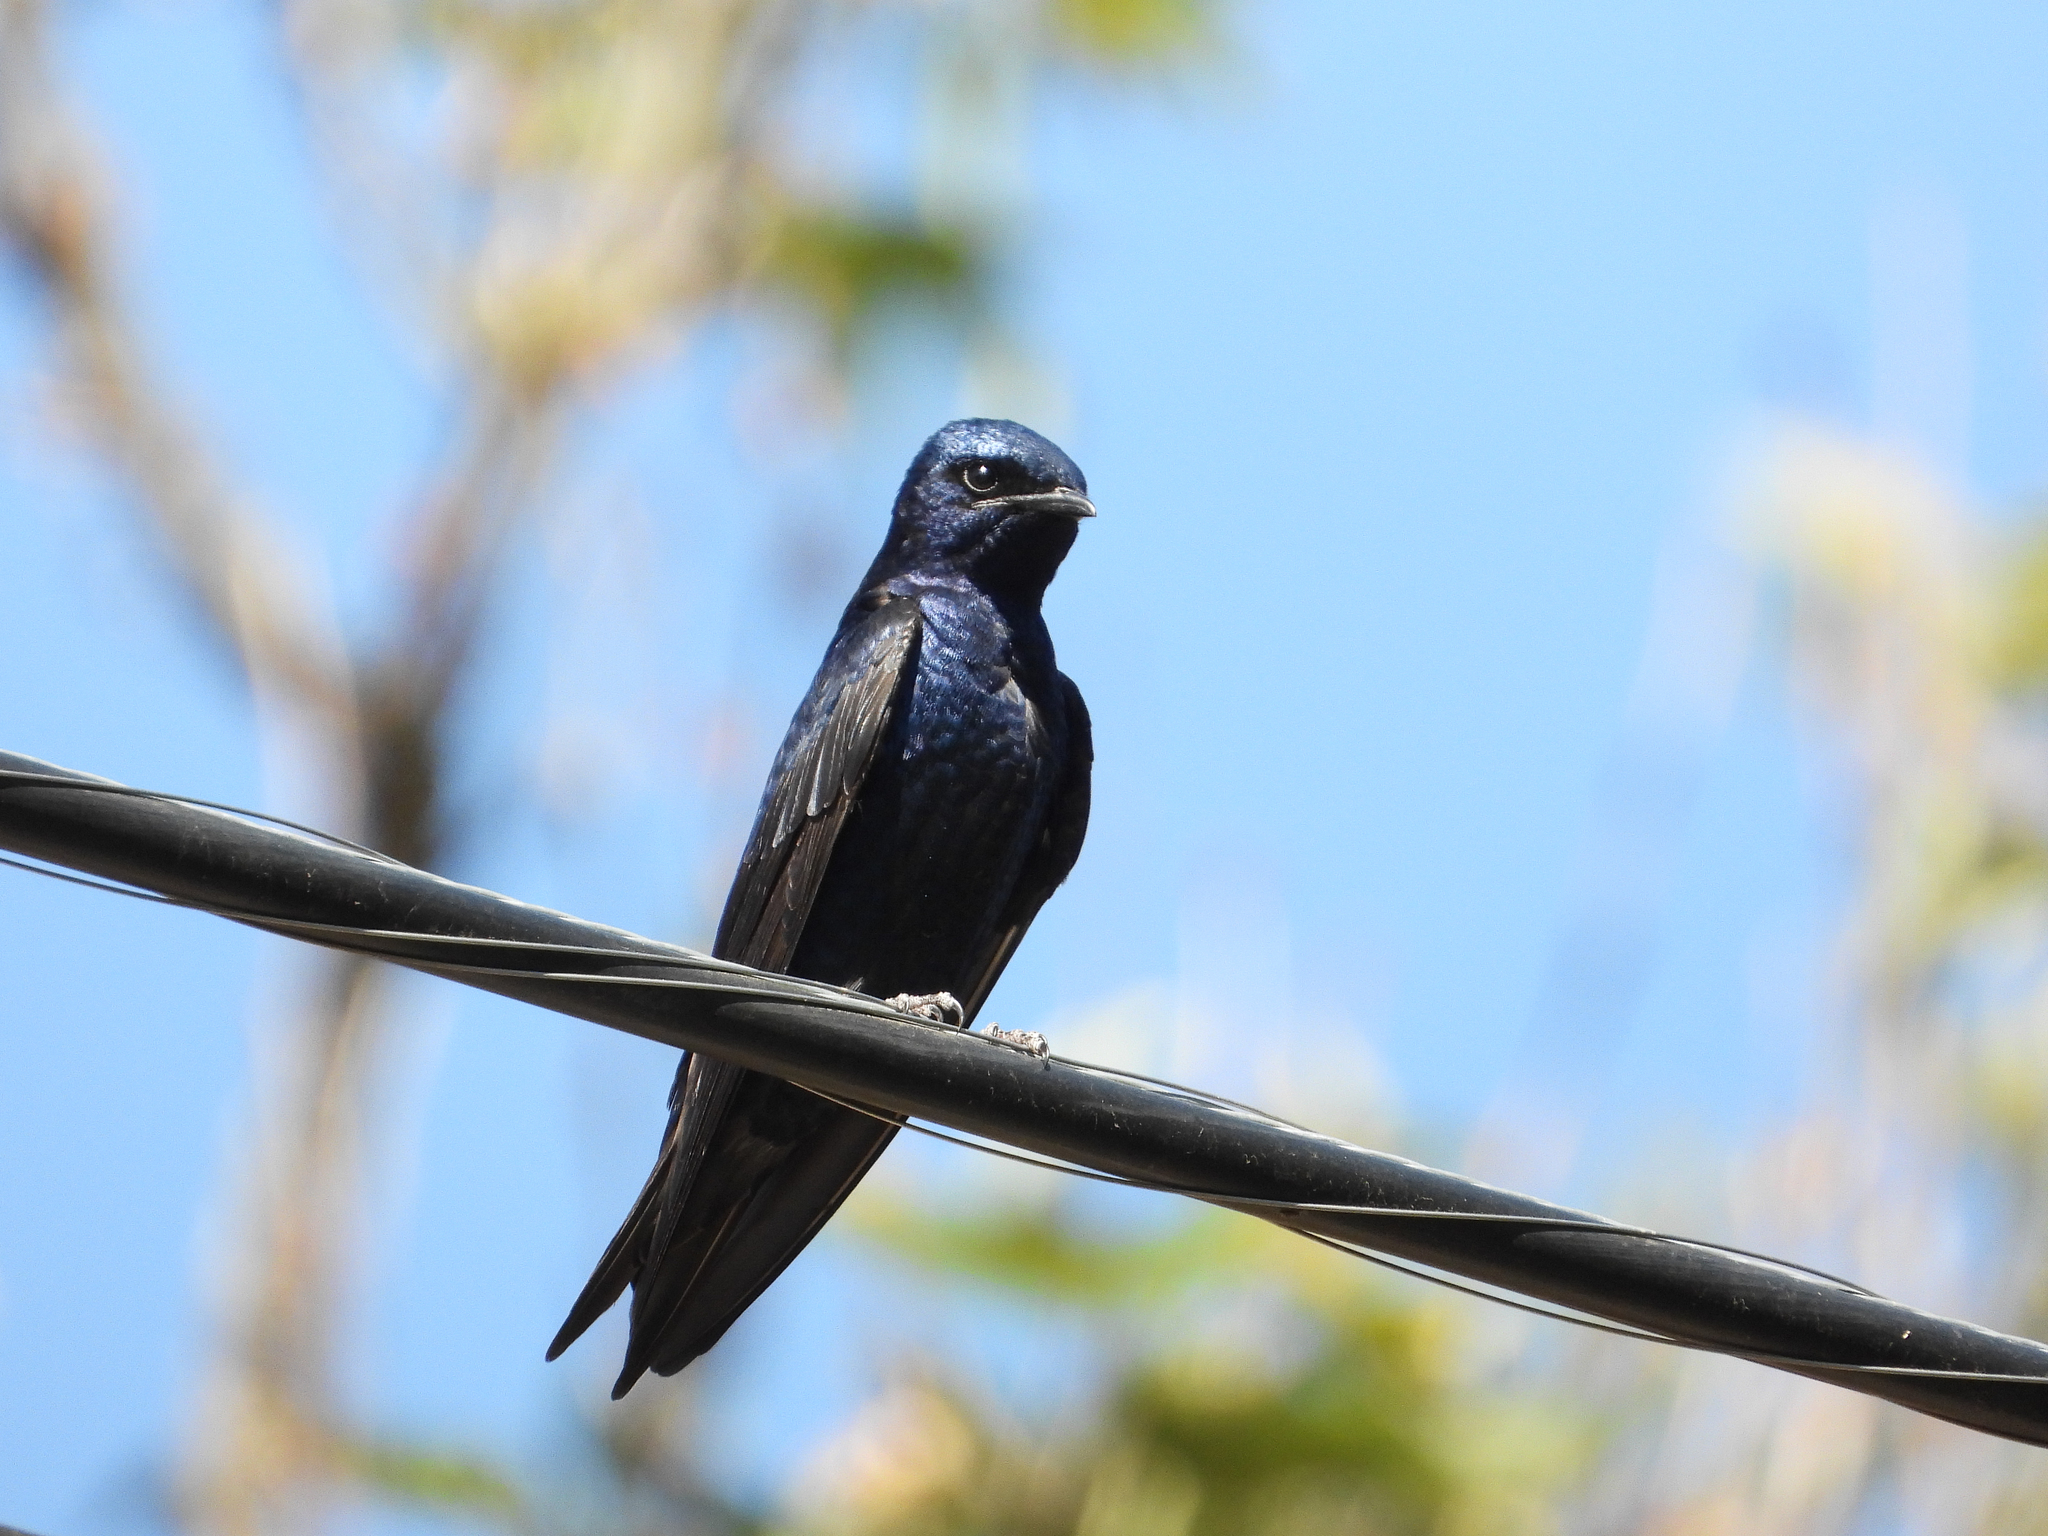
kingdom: Animalia
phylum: Chordata
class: Aves
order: Passeriformes
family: Hirundinidae
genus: Progne
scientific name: Progne subis
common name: Purple martin
